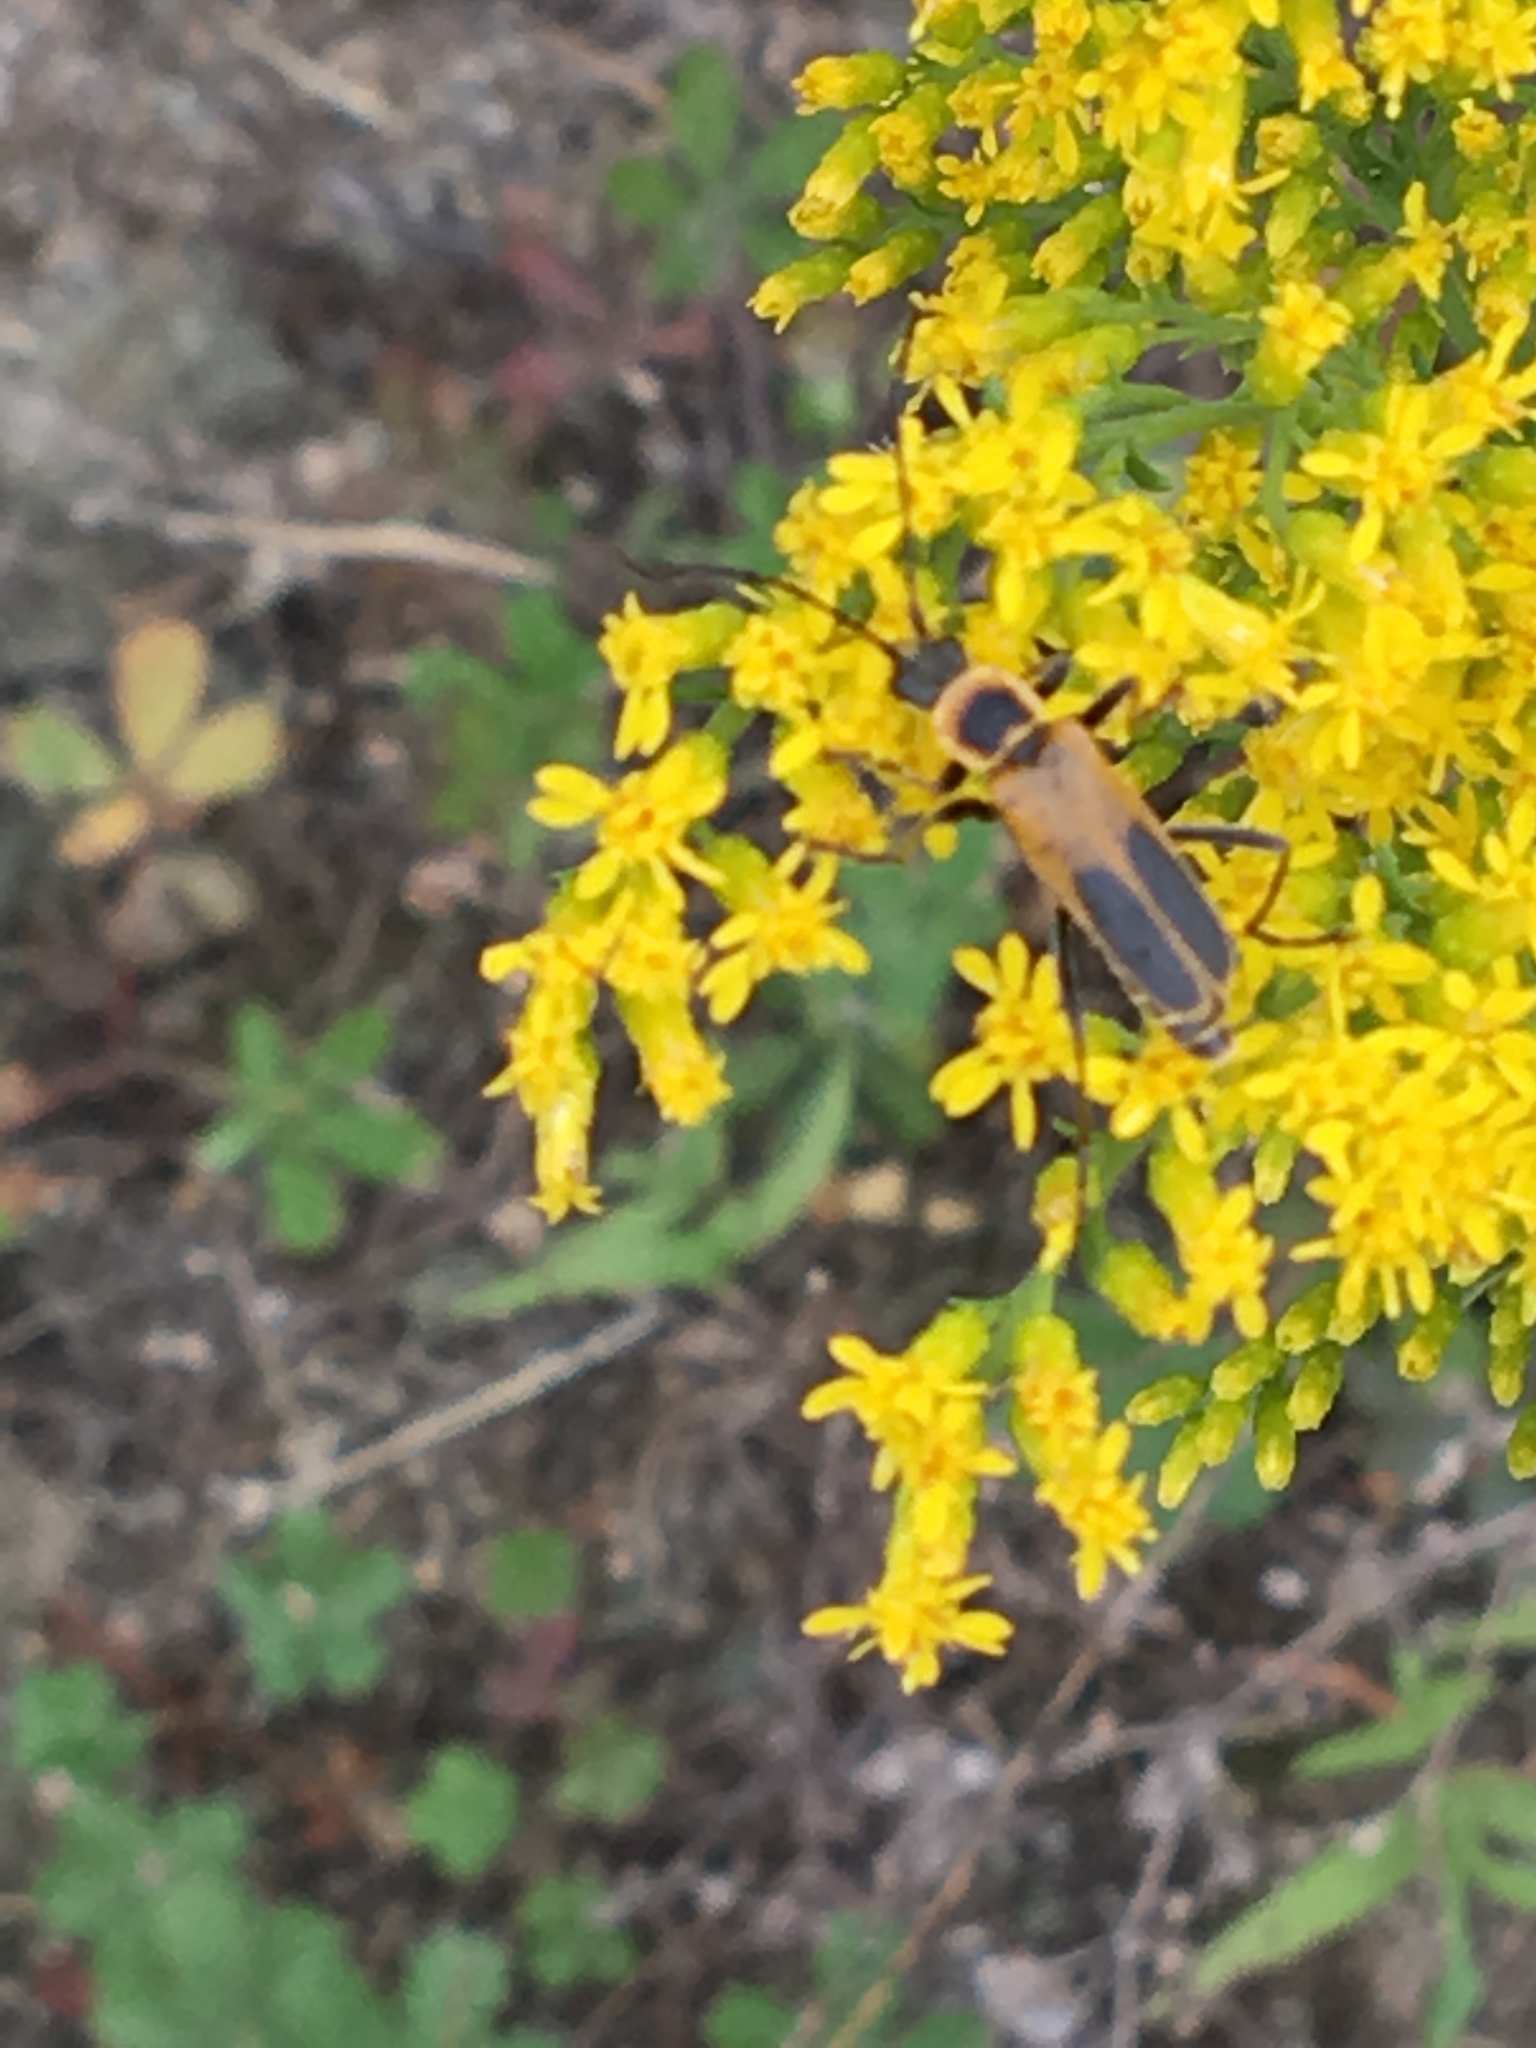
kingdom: Animalia
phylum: Arthropoda
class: Insecta
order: Coleoptera
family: Cantharidae
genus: Chauliognathus
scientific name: Chauliognathus pensylvanicus
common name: Goldenrod soldier beetle
